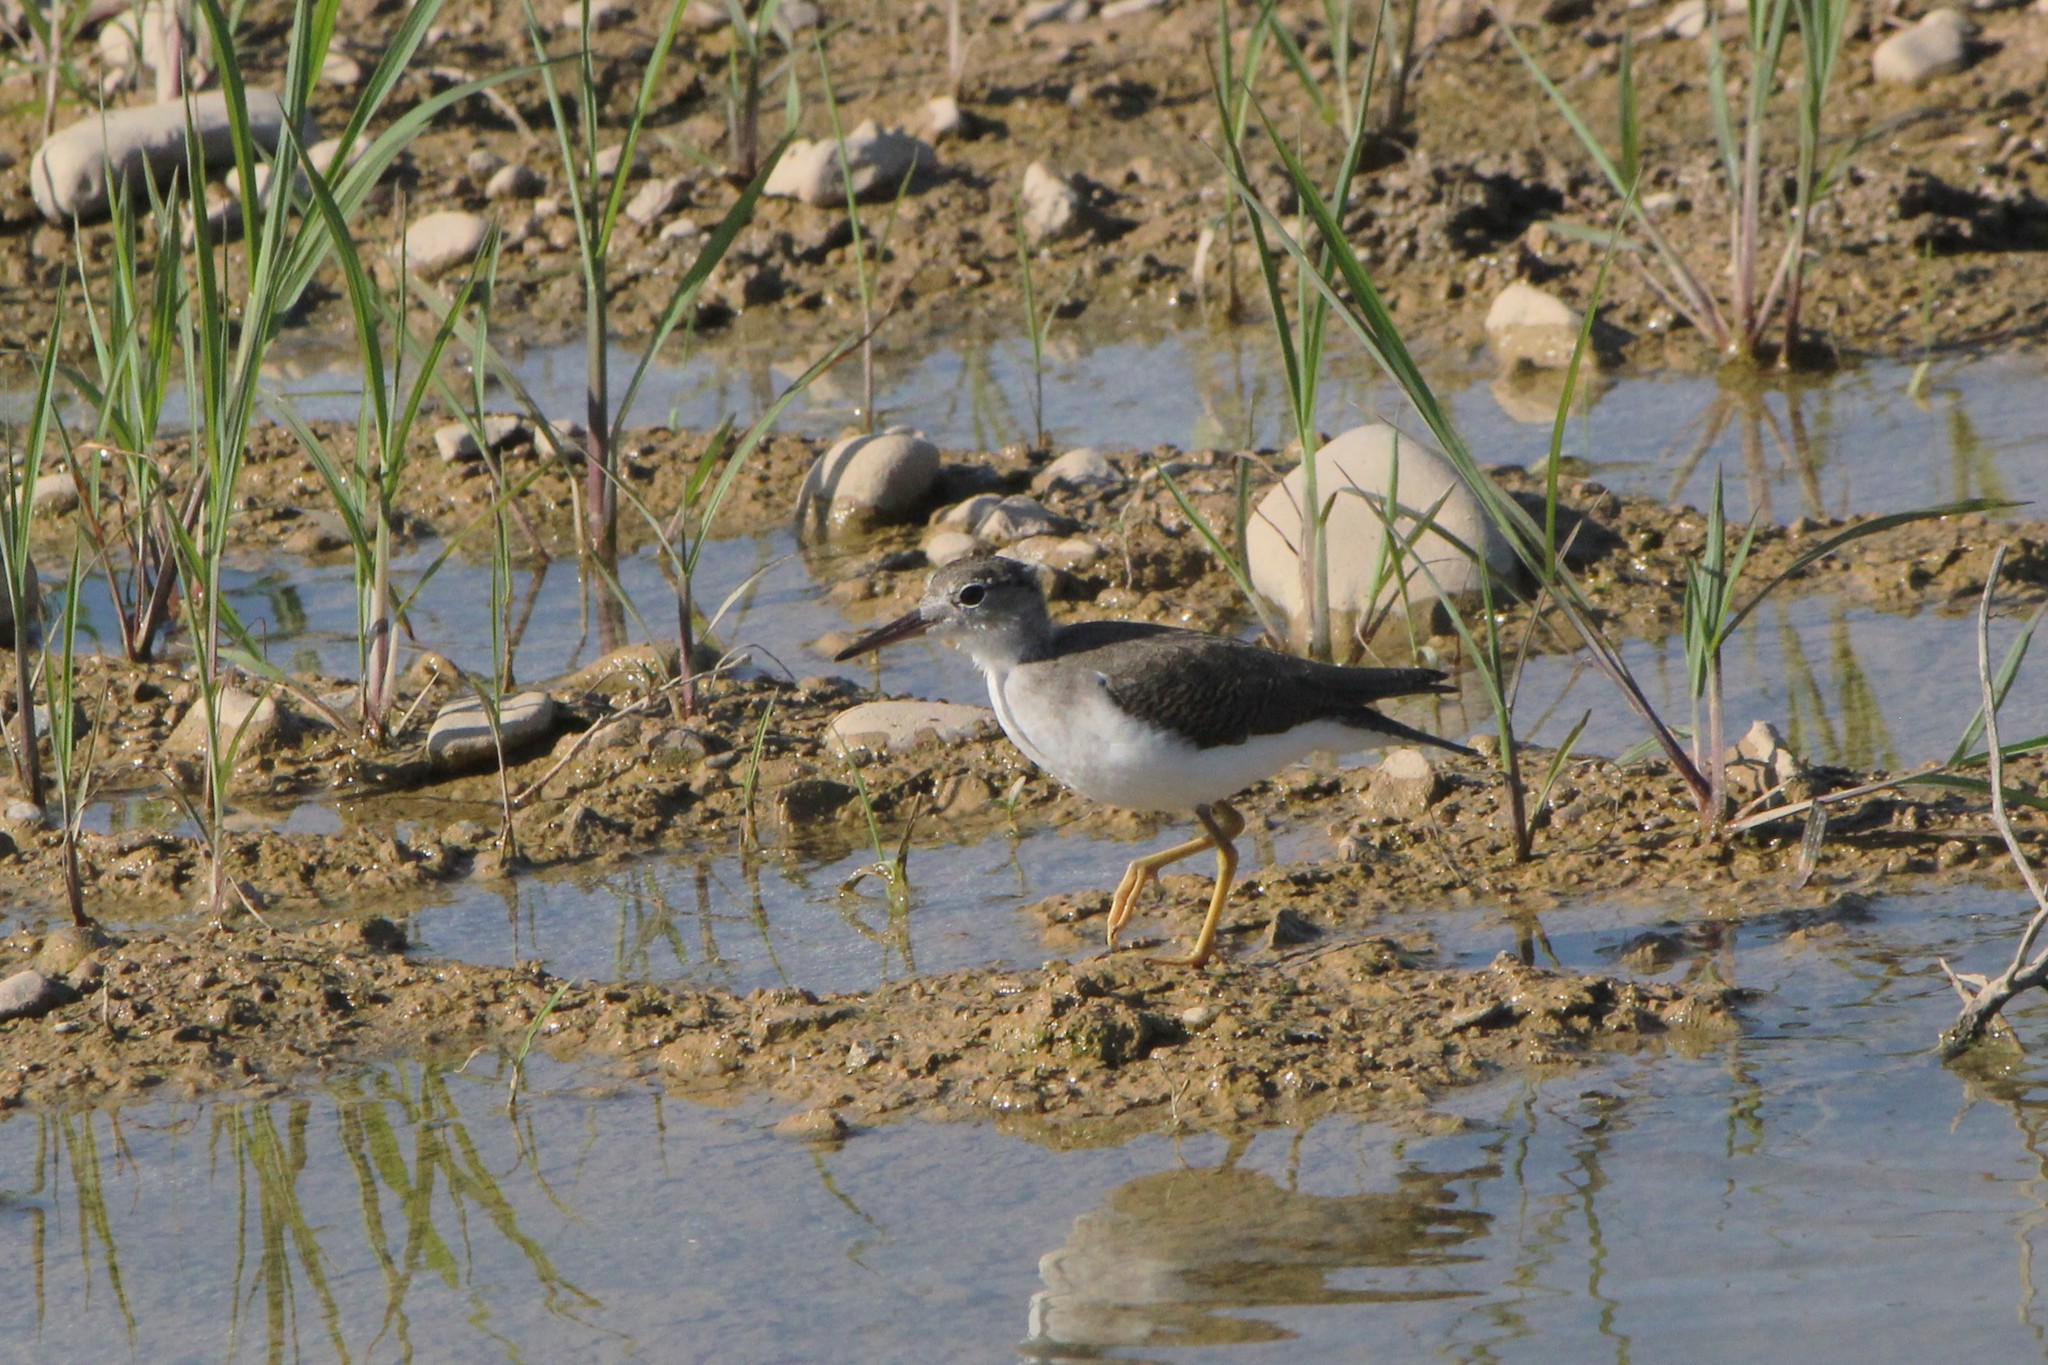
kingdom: Animalia
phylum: Chordata
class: Aves
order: Charadriiformes
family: Scolopacidae
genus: Actitis
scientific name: Actitis macularius
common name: Spotted sandpiper
